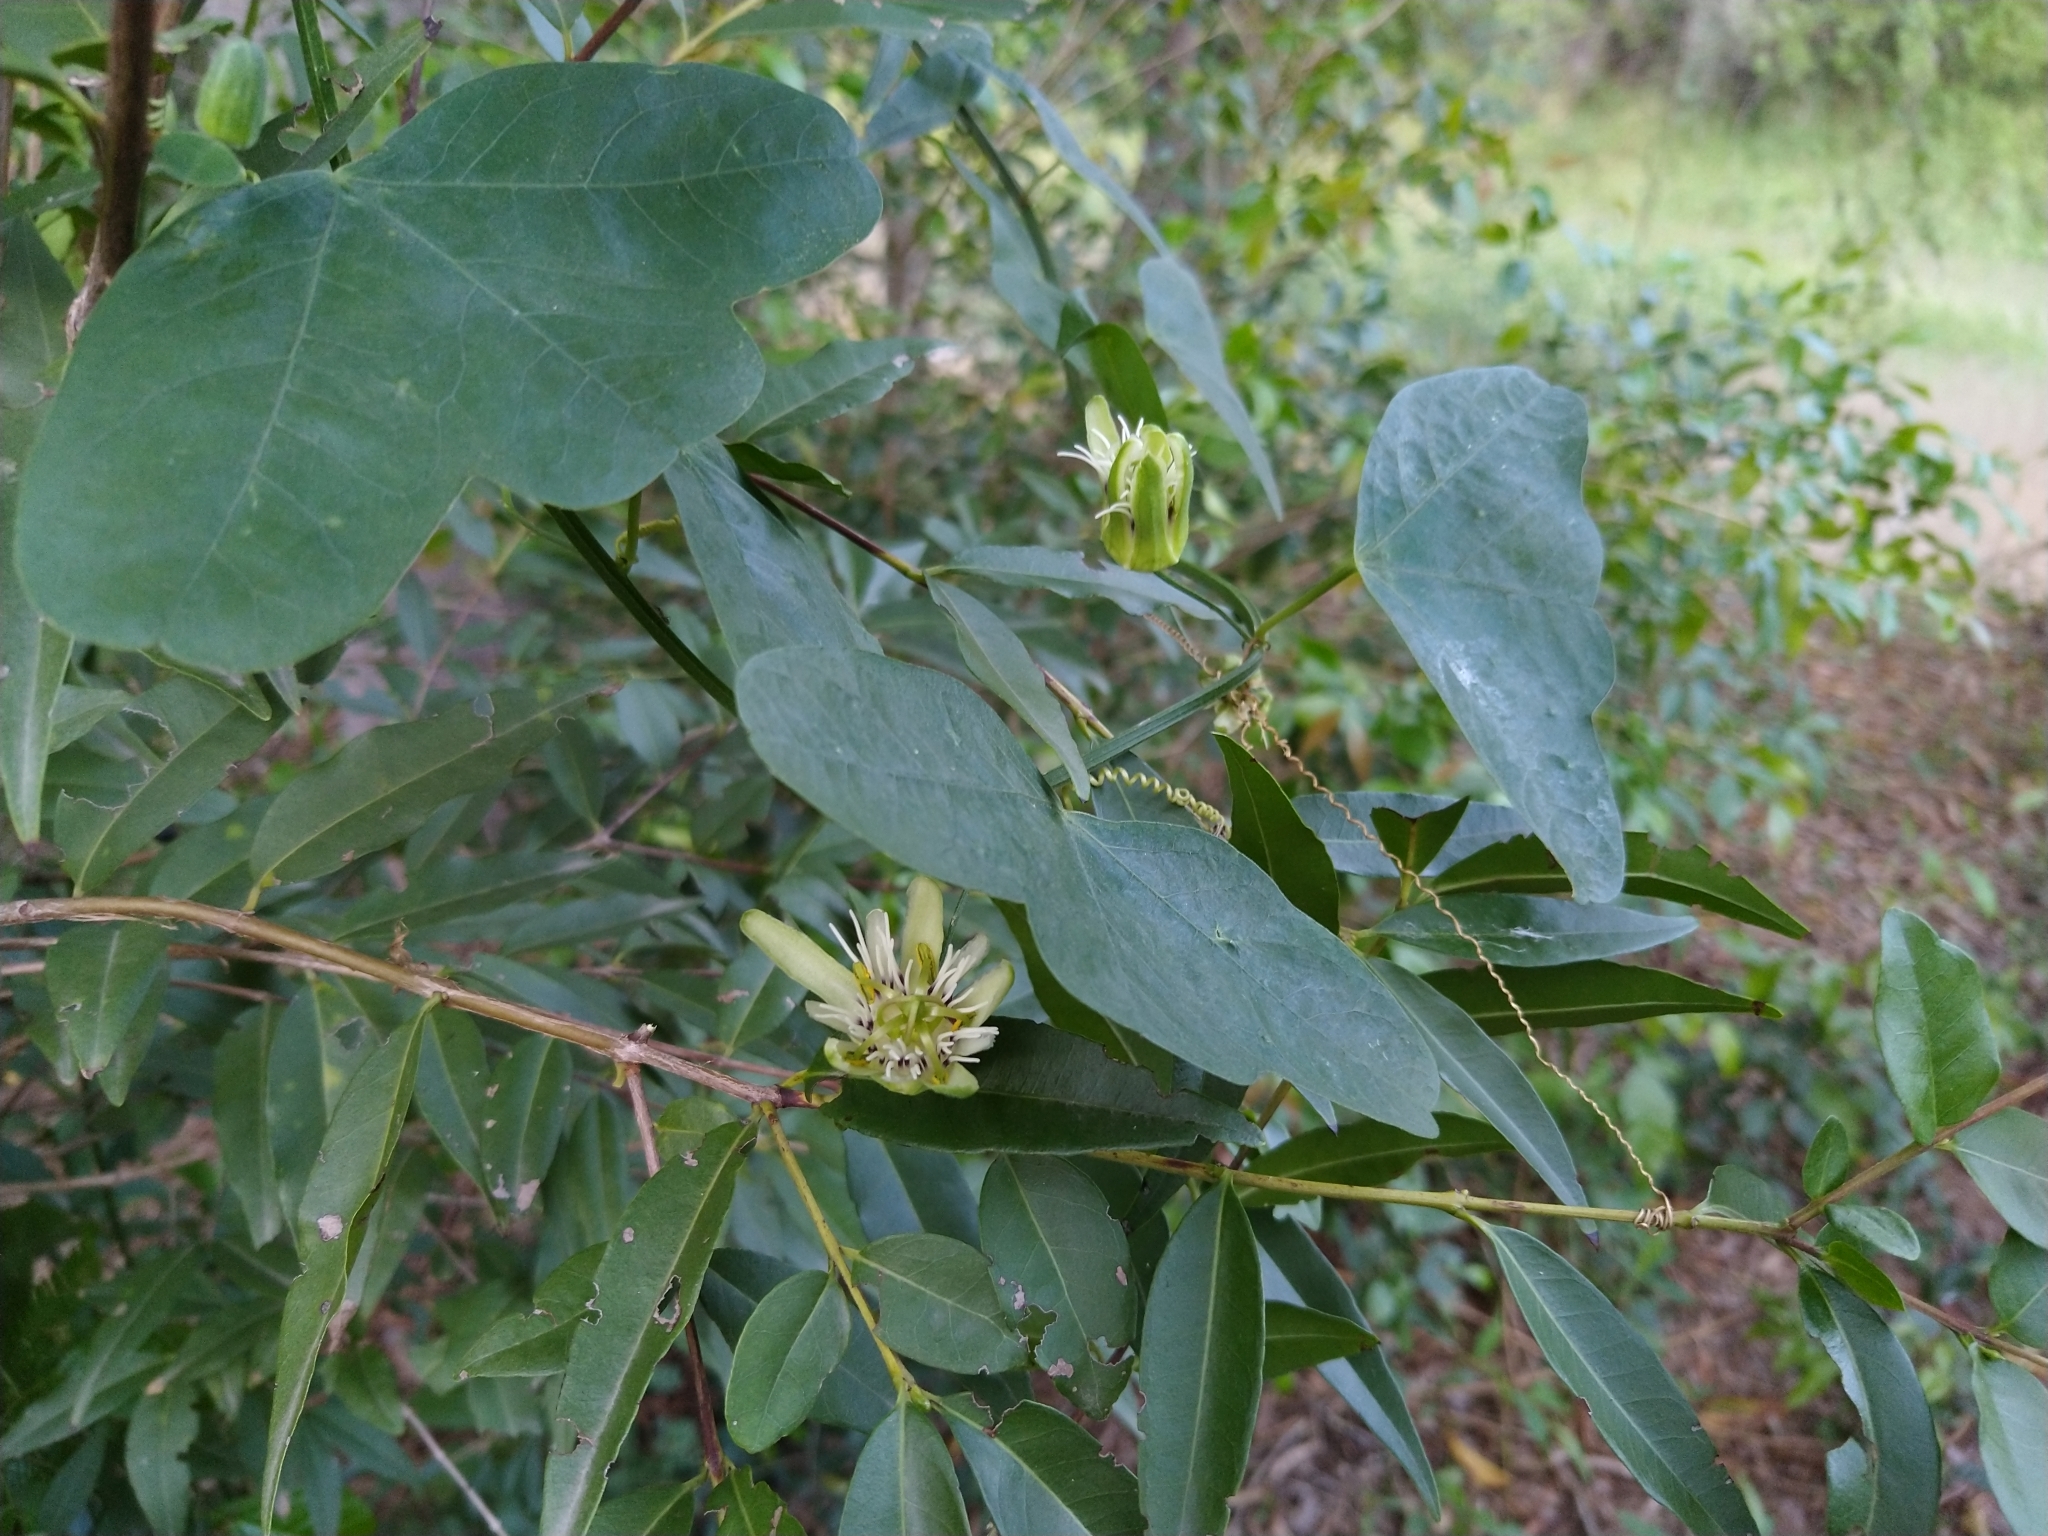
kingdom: Plantae
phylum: Tracheophyta
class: Magnoliopsida
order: Malpighiales
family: Passifloraceae
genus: Passiflora
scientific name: Passiflora misera
